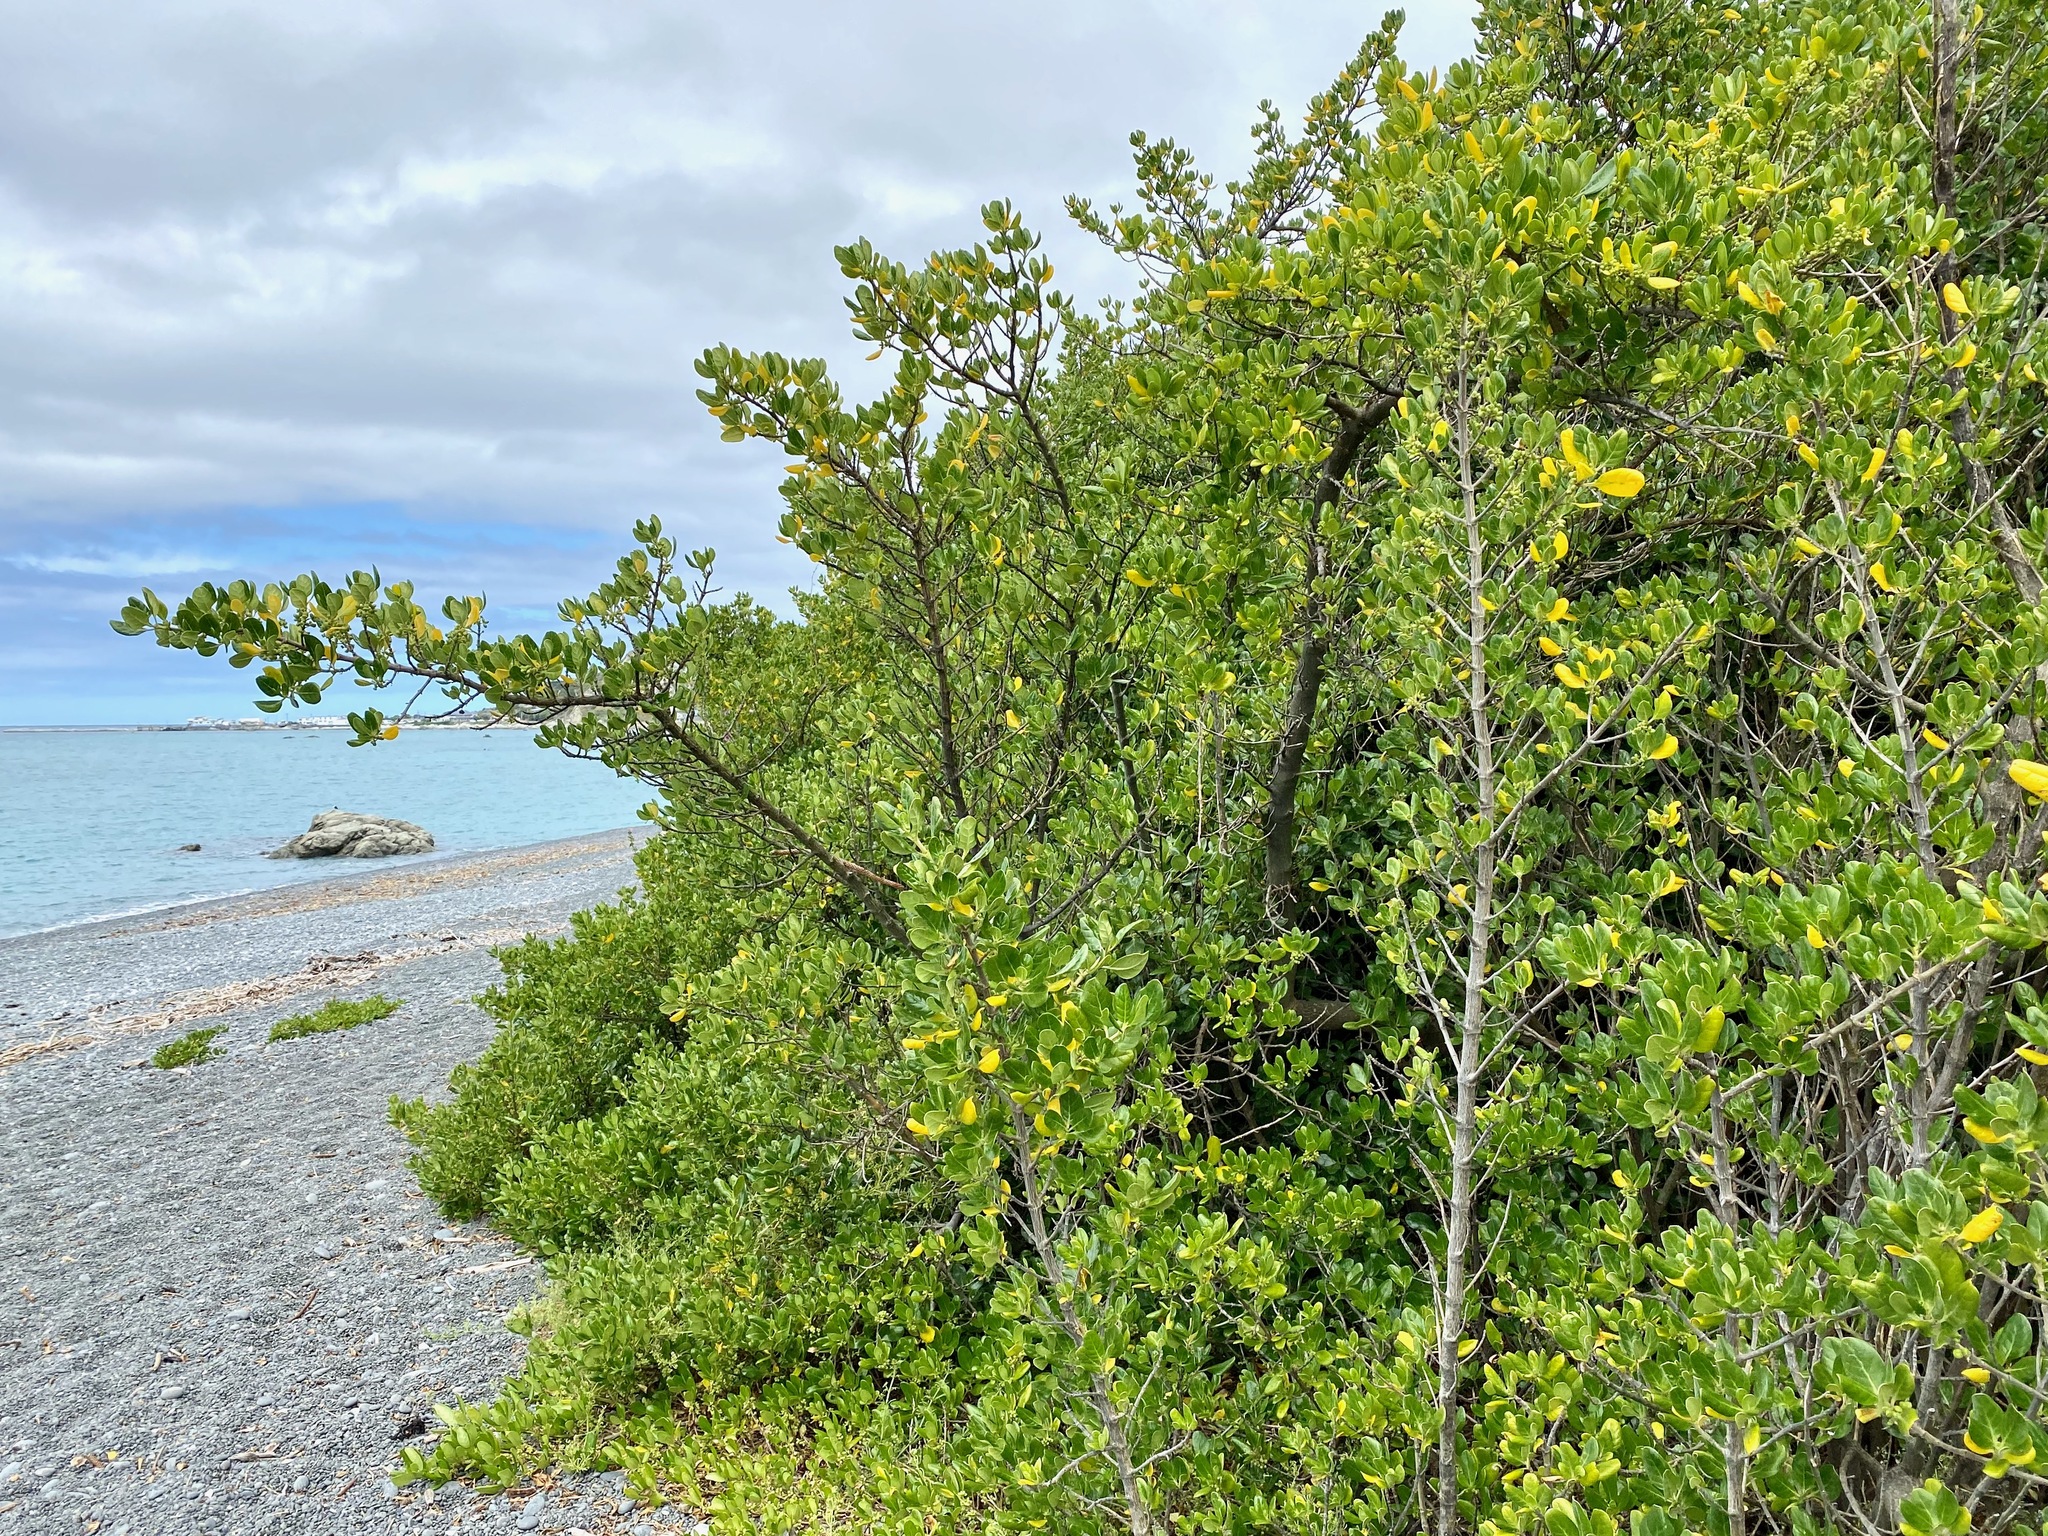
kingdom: Plantae
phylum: Tracheophyta
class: Magnoliopsida
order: Gentianales
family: Rubiaceae
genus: Coprosma
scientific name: Coprosma repens
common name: Tree bedstraw
